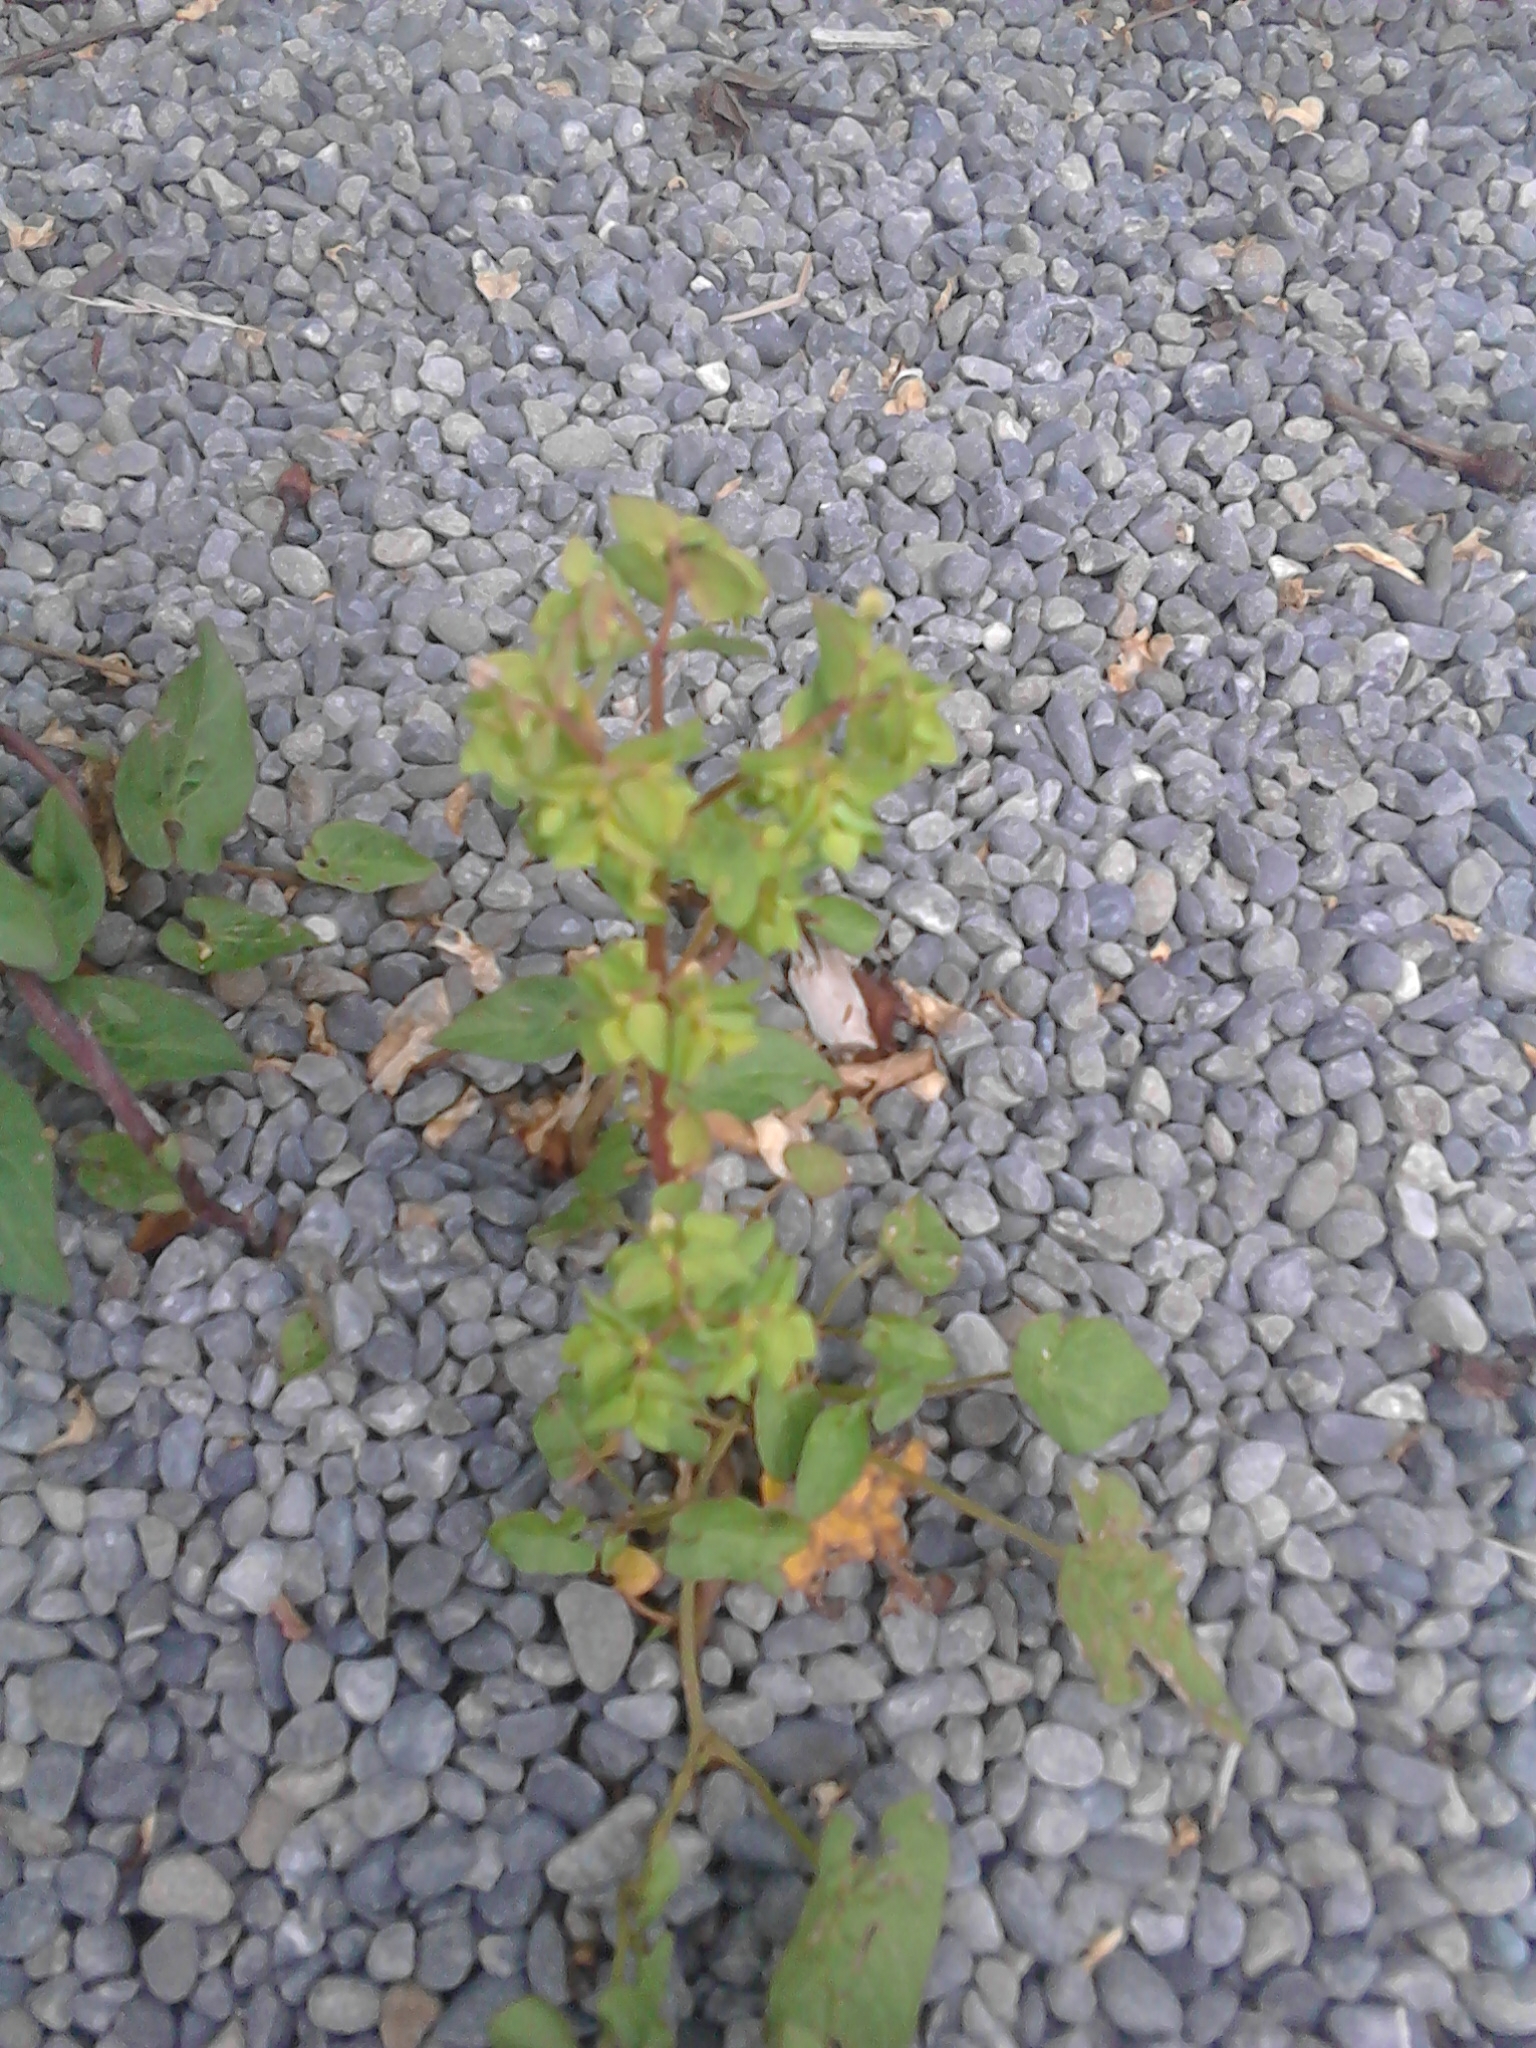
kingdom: Plantae
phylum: Tracheophyta
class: Magnoliopsida
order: Malpighiales
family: Euphorbiaceae
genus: Euphorbia
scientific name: Euphorbia peplus
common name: Petty spurge
